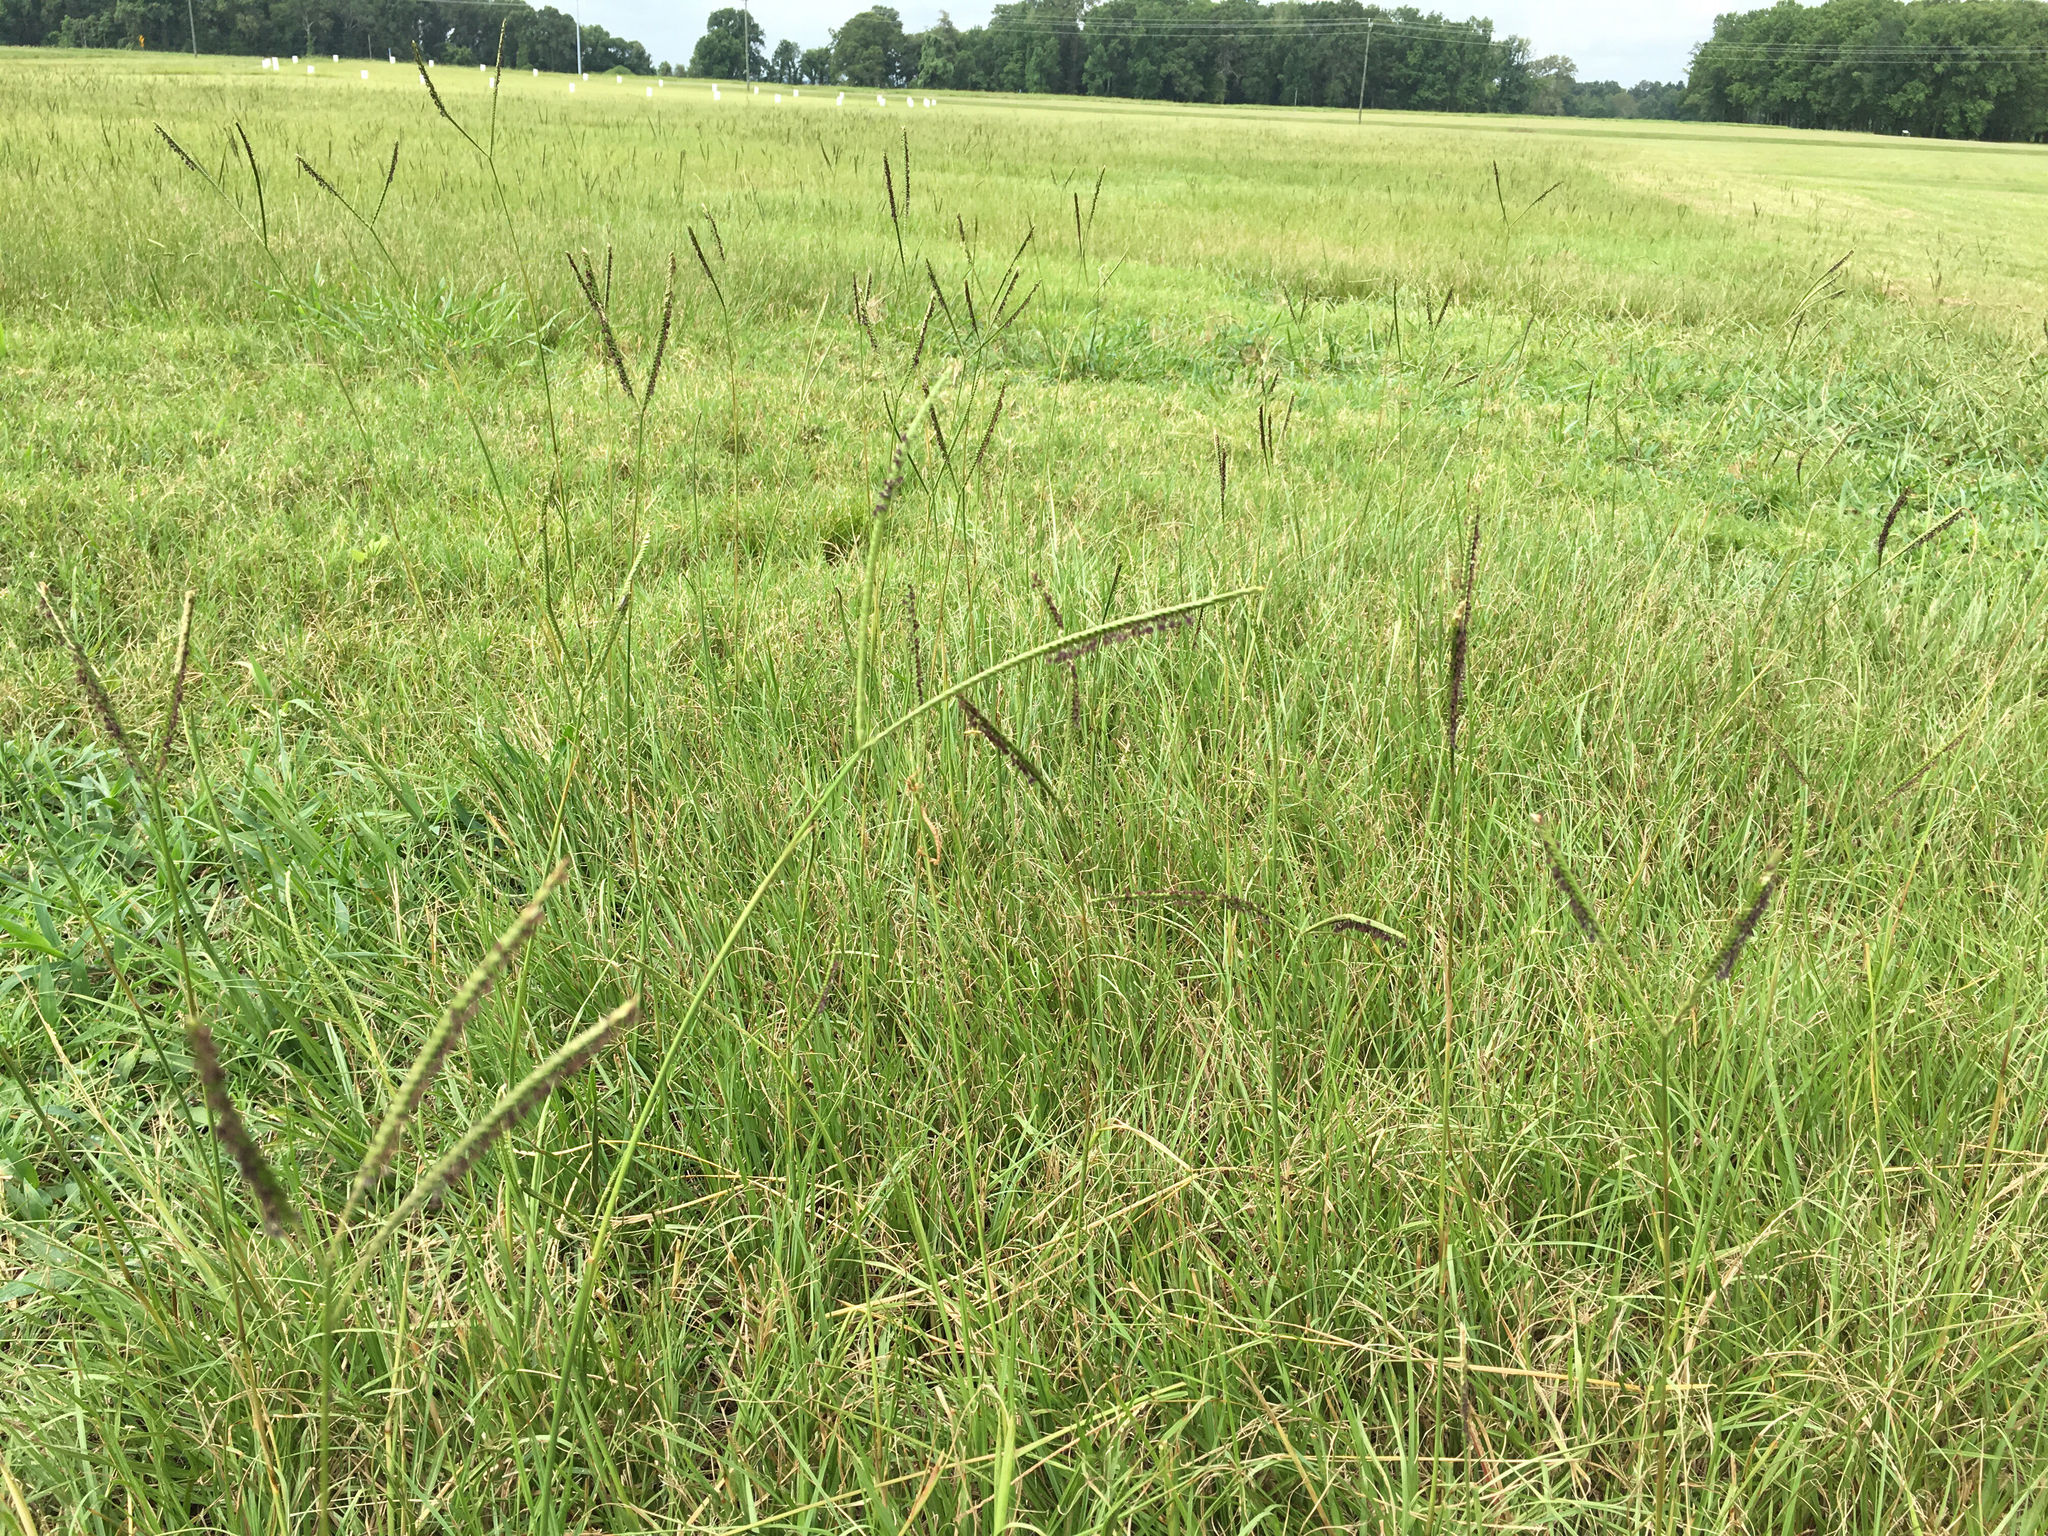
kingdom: Plantae
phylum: Tracheophyta
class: Liliopsida
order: Poales
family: Poaceae
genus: Paspalum
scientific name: Paspalum notatum
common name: Bahiagrass
